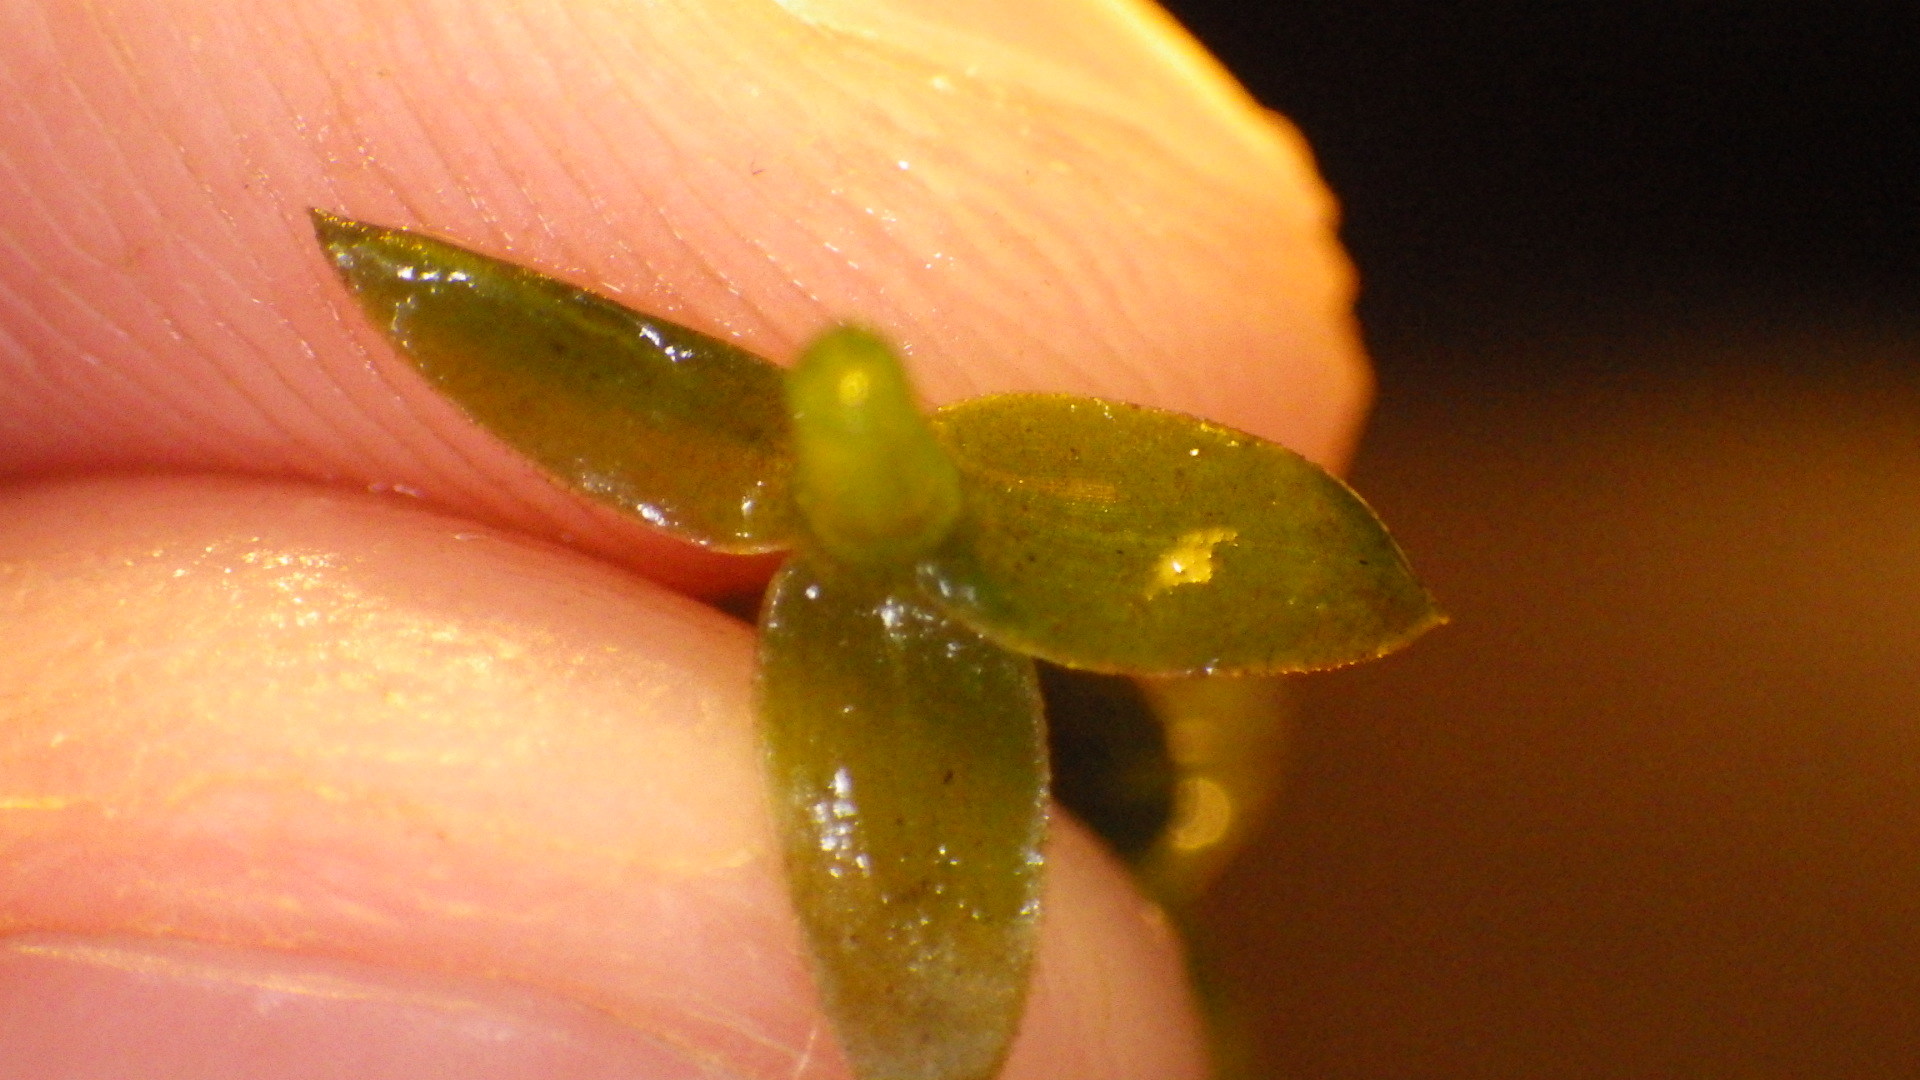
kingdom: Plantae
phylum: Tracheophyta
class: Liliopsida
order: Alismatales
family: Hydrocharitaceae
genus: Elodea
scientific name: Elodea canadensis
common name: Canadian waterweed
